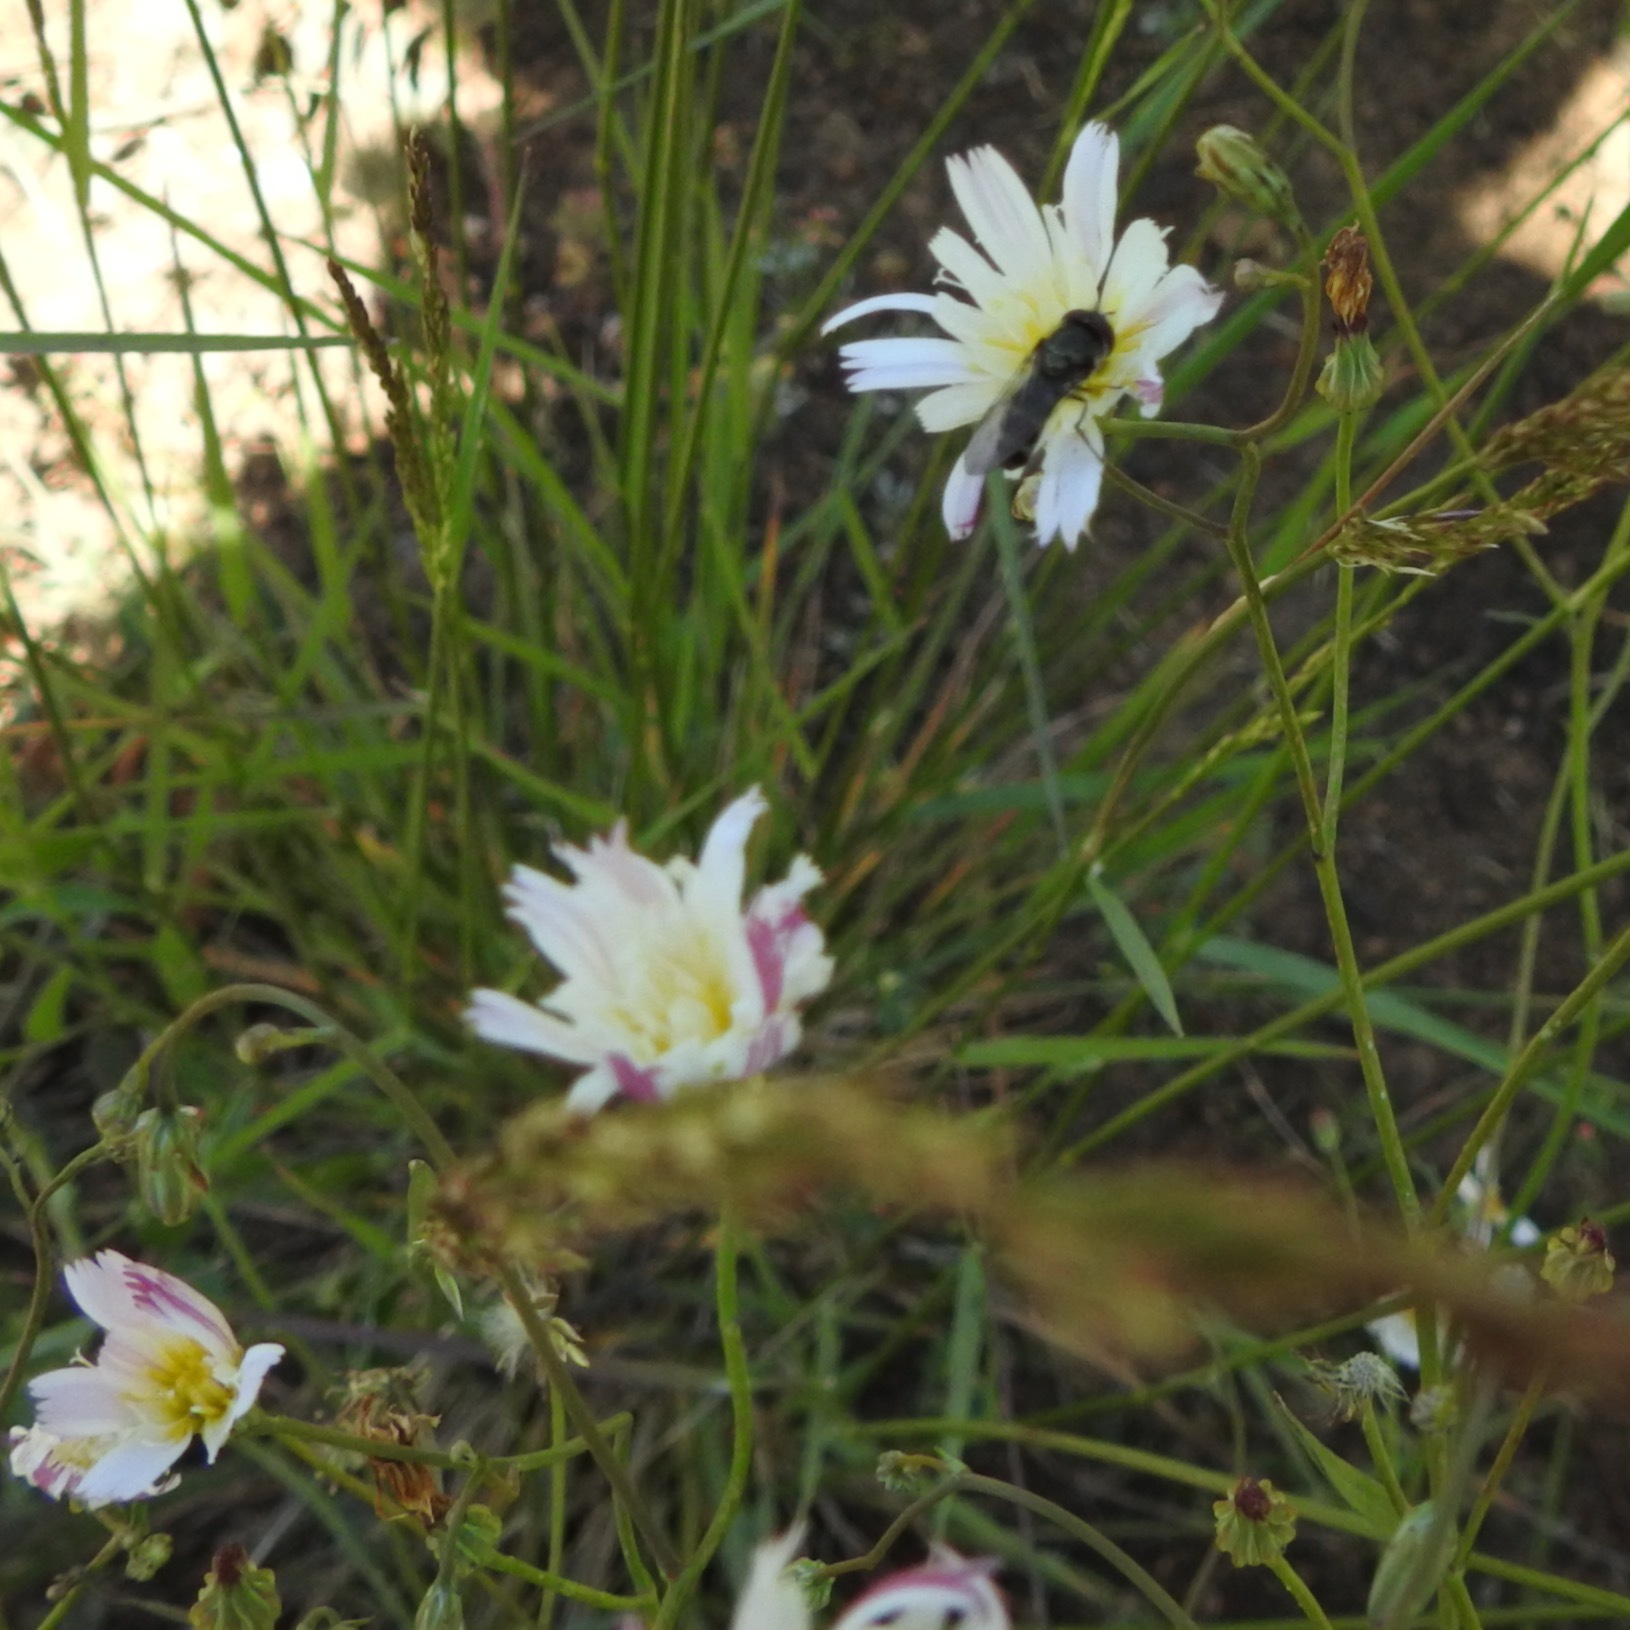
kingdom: Animalia
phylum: Arthropoda
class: Insecta
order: Diptera
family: Syrphidae
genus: Platycheirus
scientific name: Platycheirus
